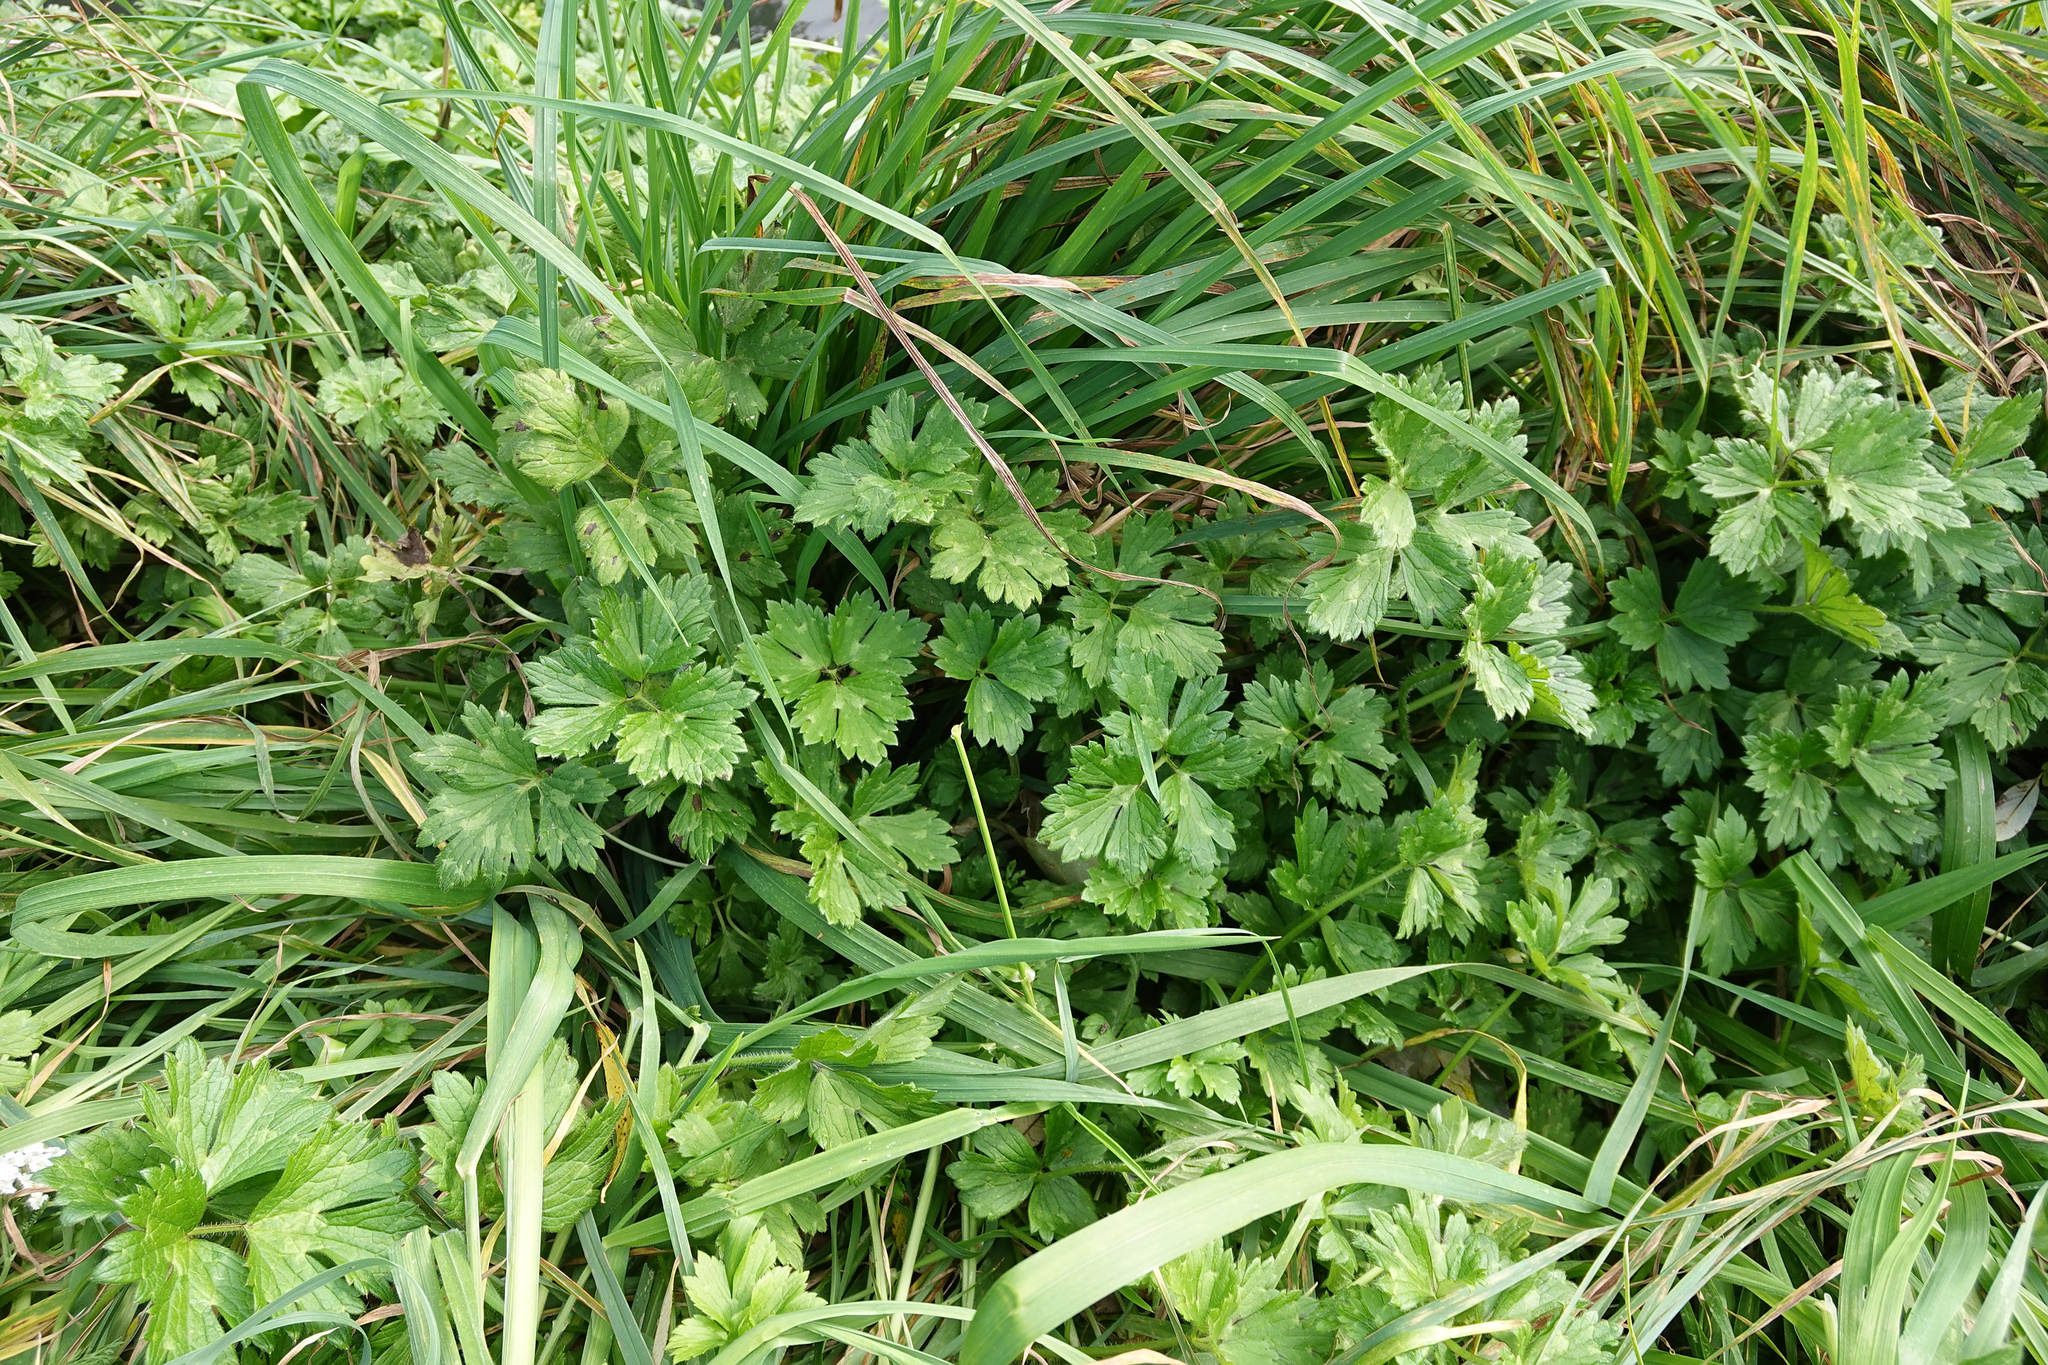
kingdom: Plantae
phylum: Tracheophyta
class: Magnoliopsida
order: Ranunculales
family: Ranunculaceae
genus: Ranunculus
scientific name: Ranunculus repens
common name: Creeping buttercup
